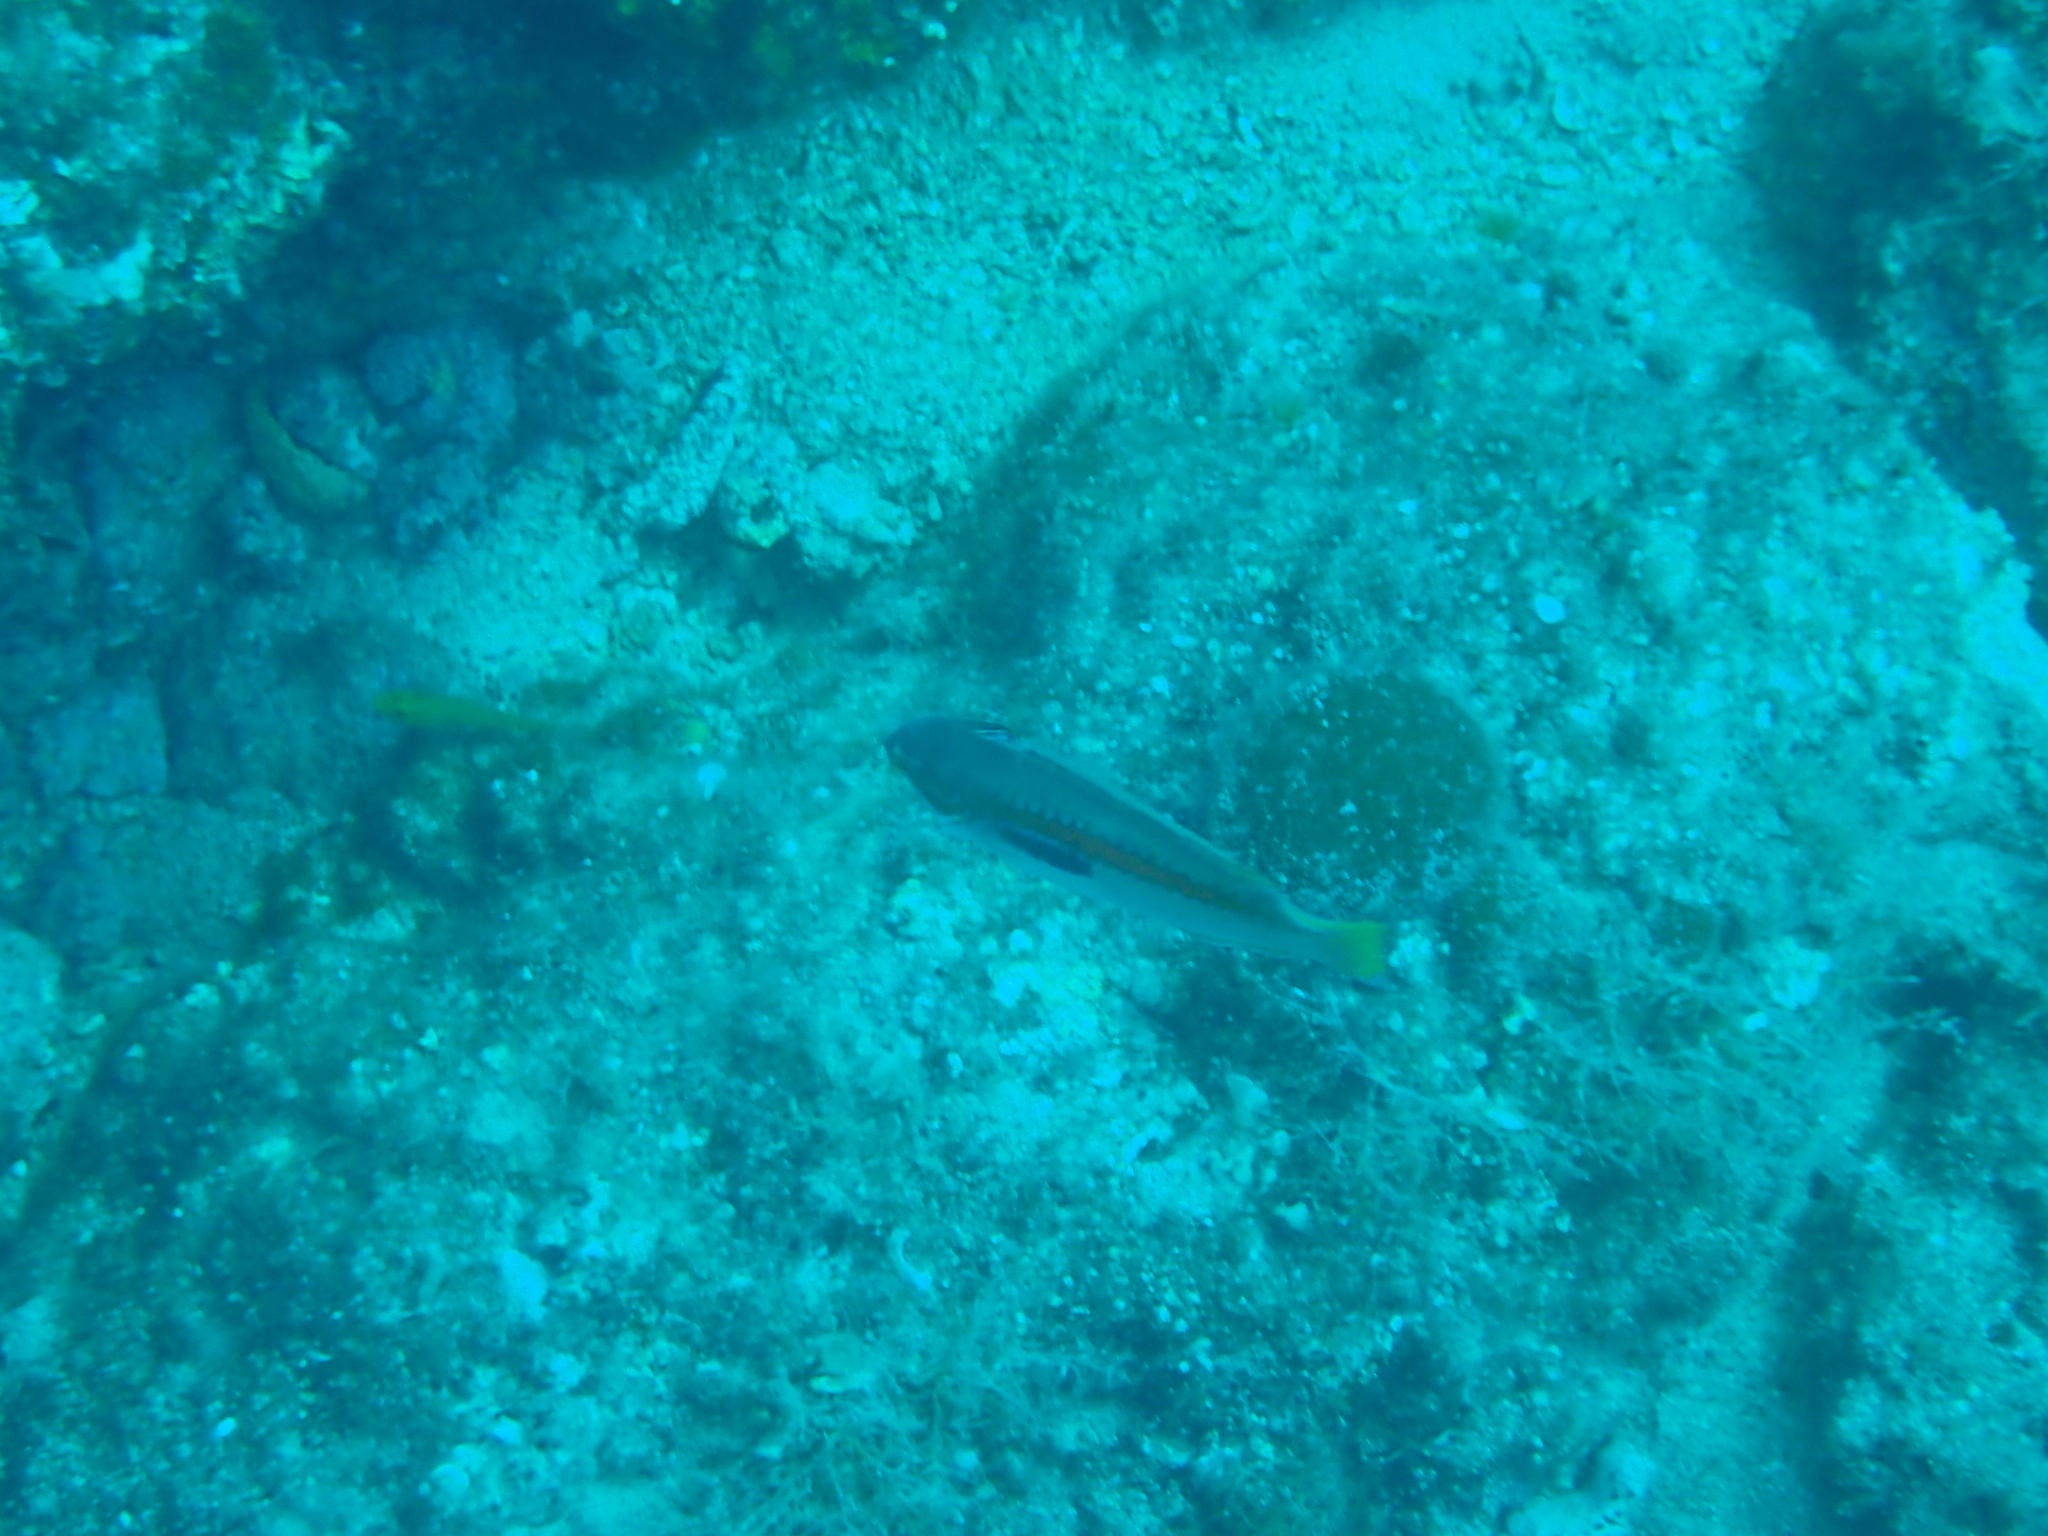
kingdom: Animalia
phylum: Chordata
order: Perciformes
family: Labridae
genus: Coris
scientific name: Coris julis
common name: Rainbow wrasse
